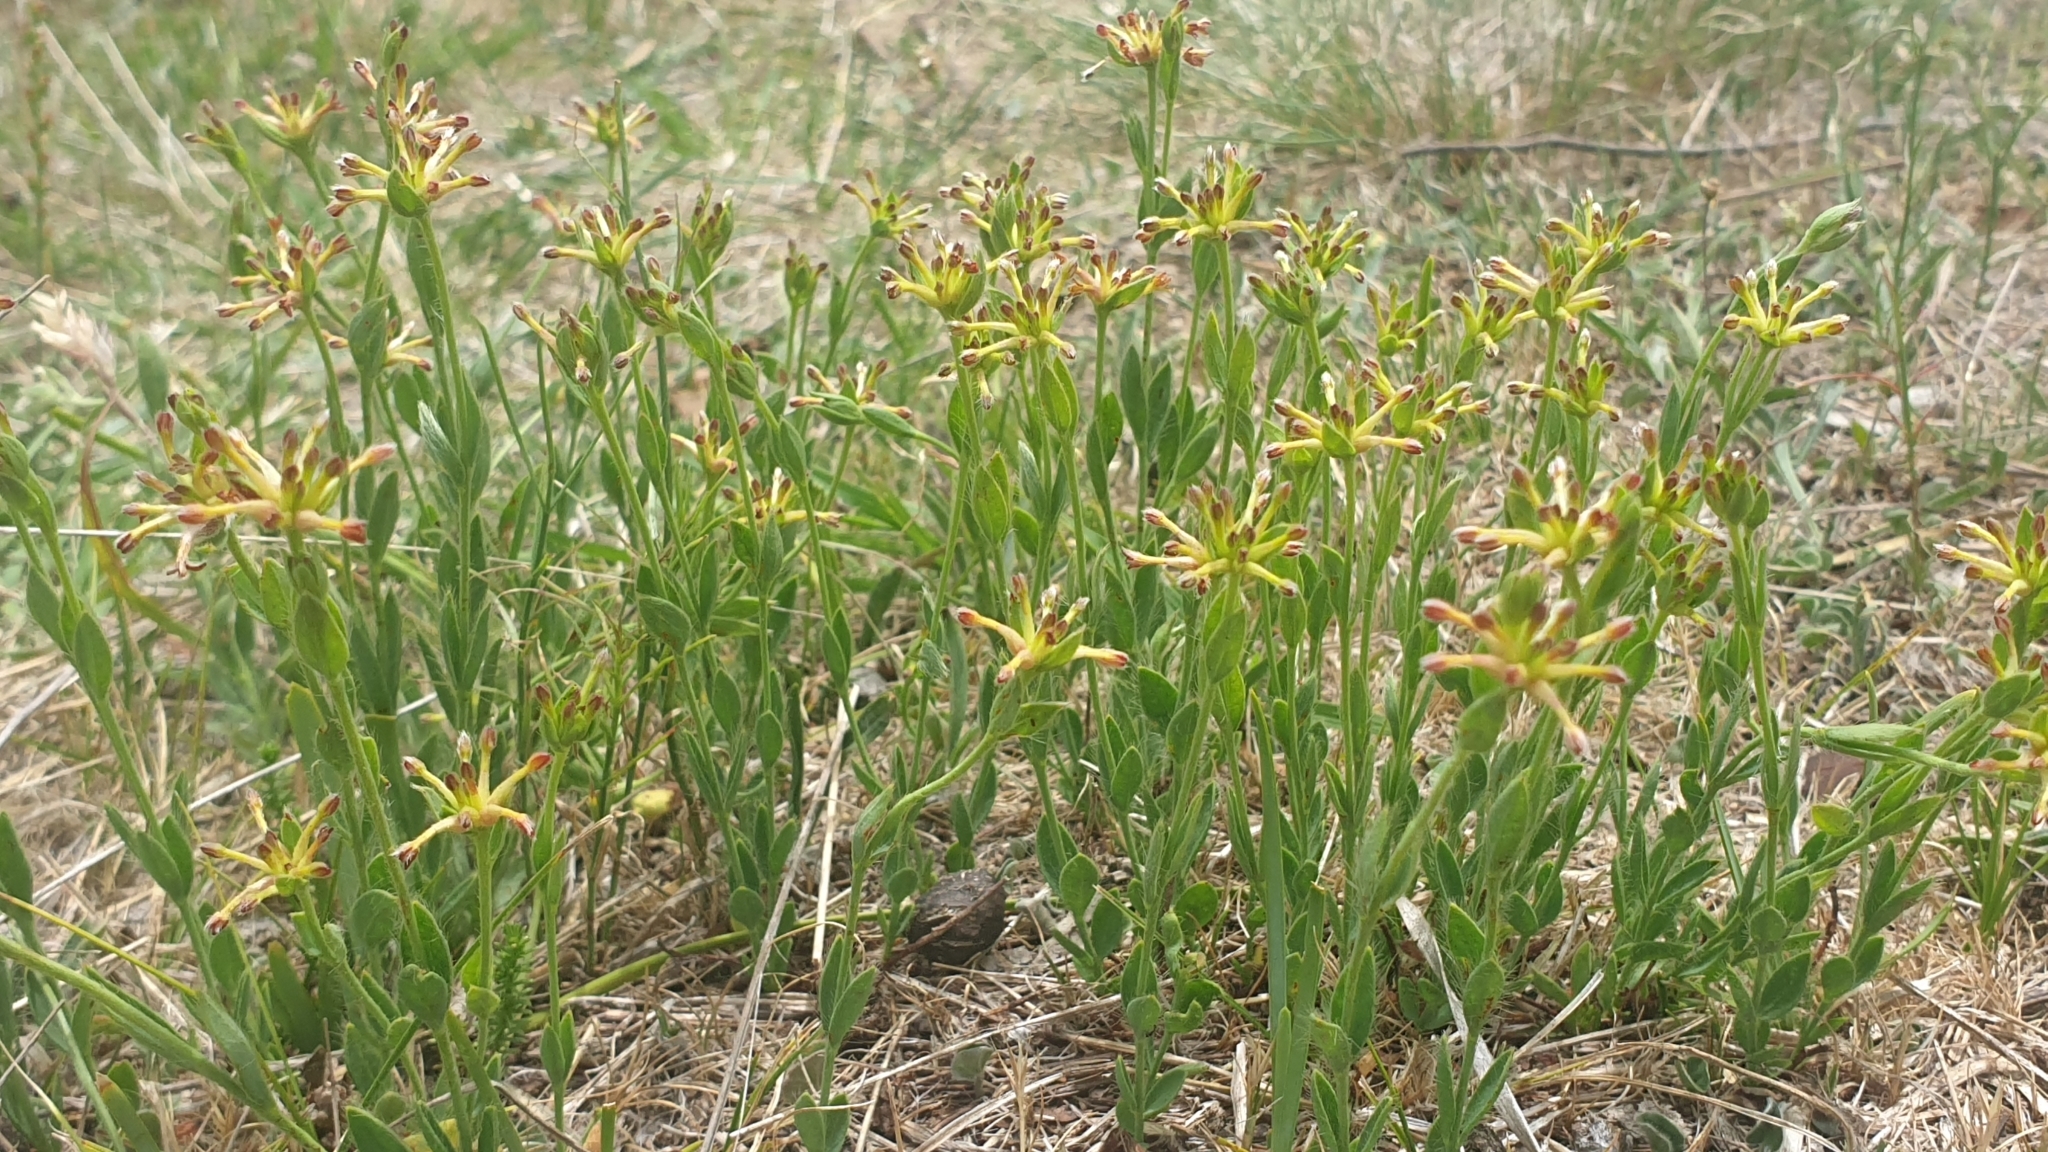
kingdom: Plantae
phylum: Tracheophyta
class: Magnoliopsida
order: Malvales
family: Thymelaeaceae
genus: Pimelea
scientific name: Pimelea curviflora
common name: Curved riceflower
